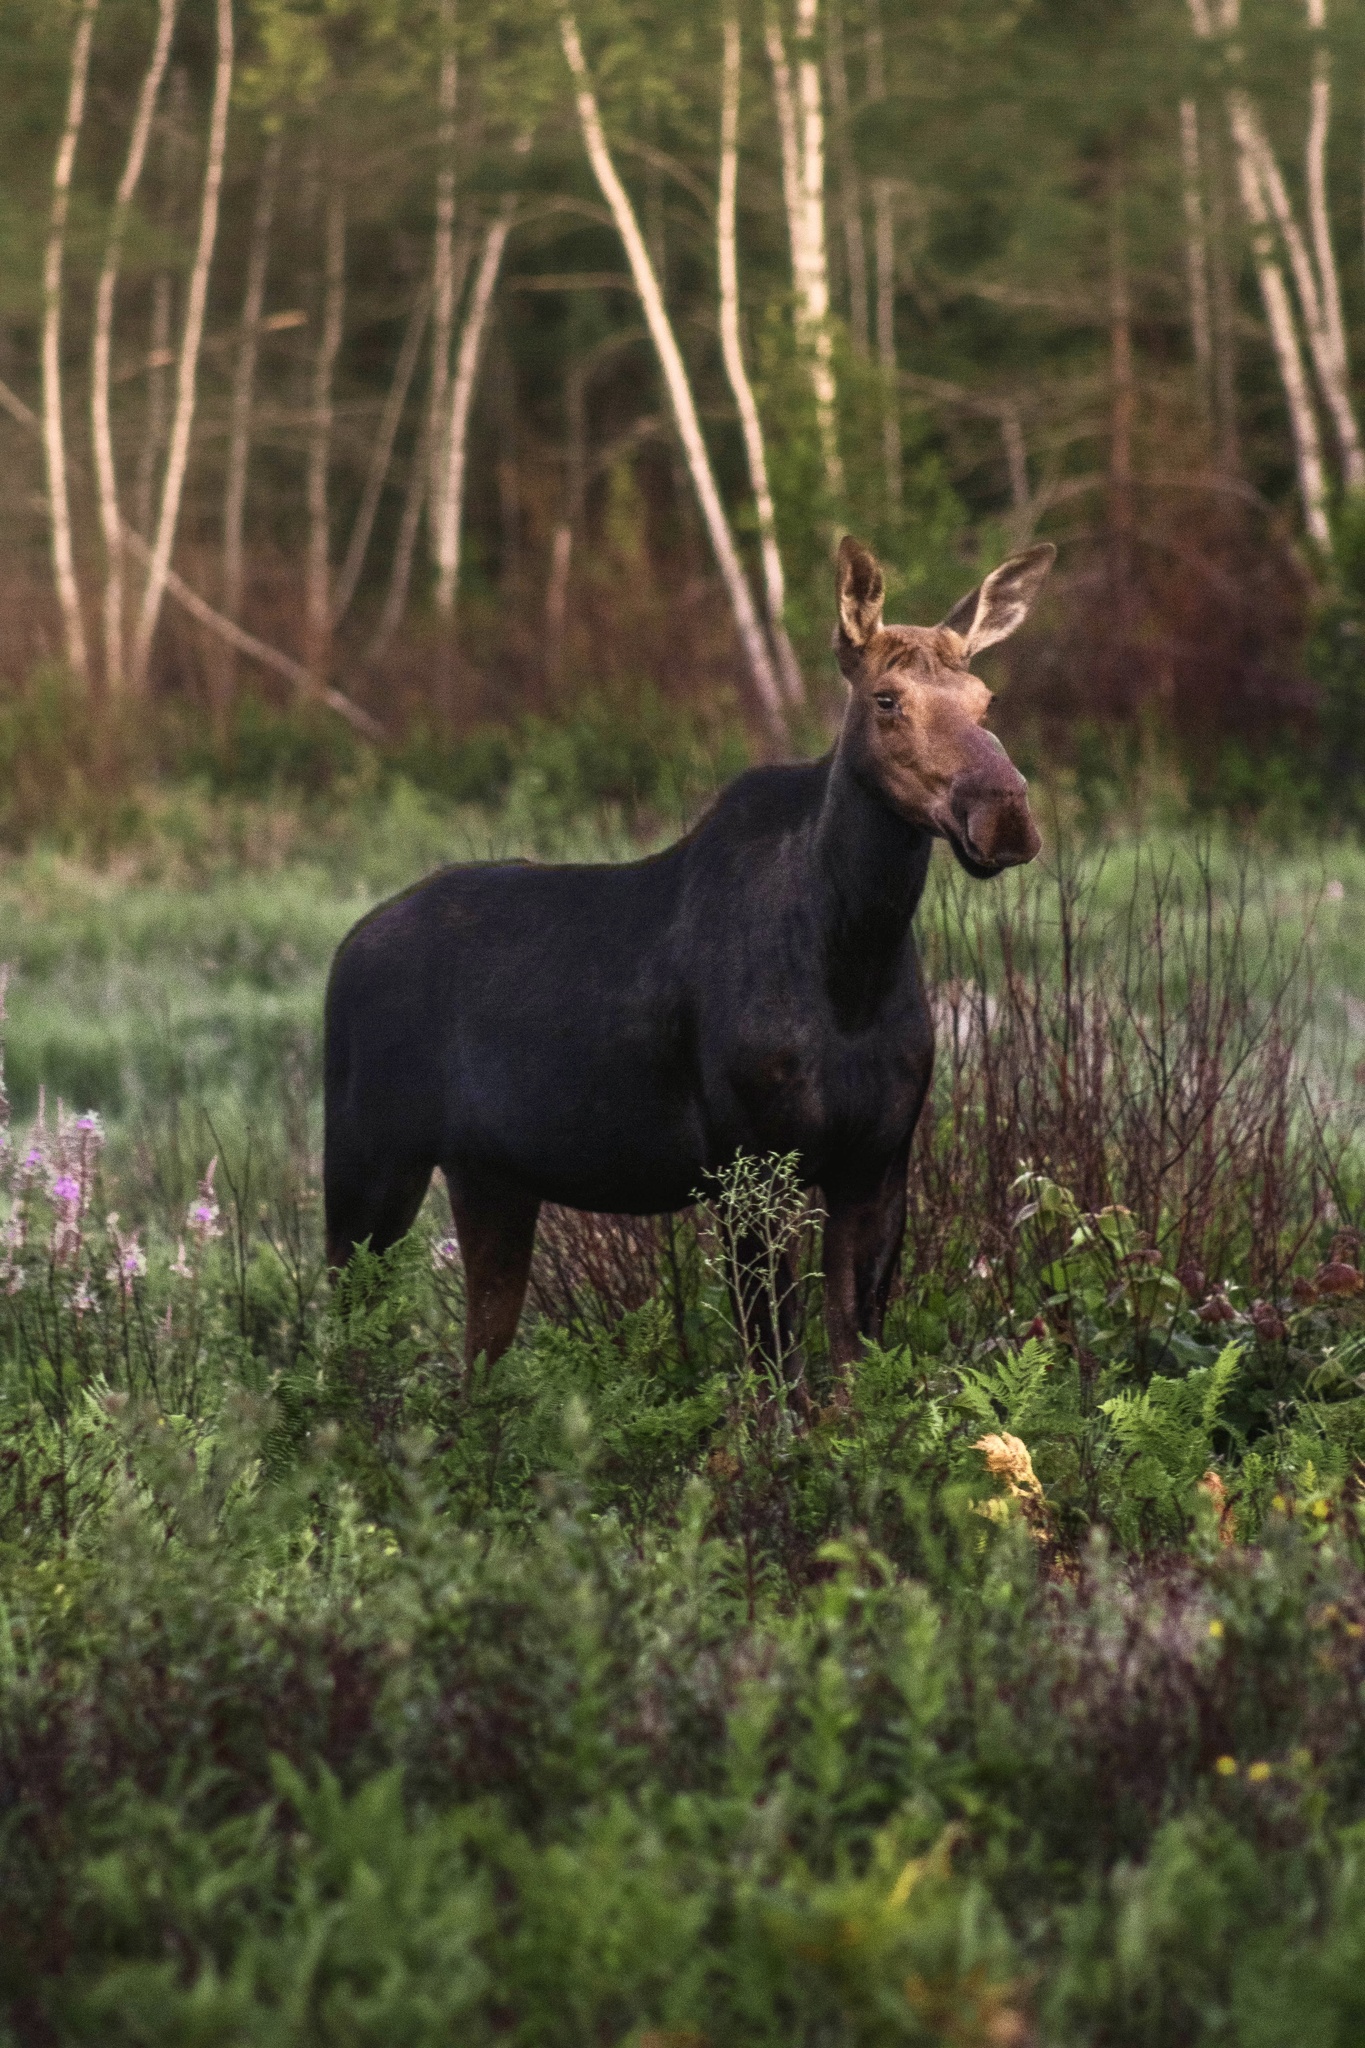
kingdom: Animalia
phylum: Chordata
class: Mammalia
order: Artiodactyla
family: Cervidae
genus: Alces
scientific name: Alces alces
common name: Moose
